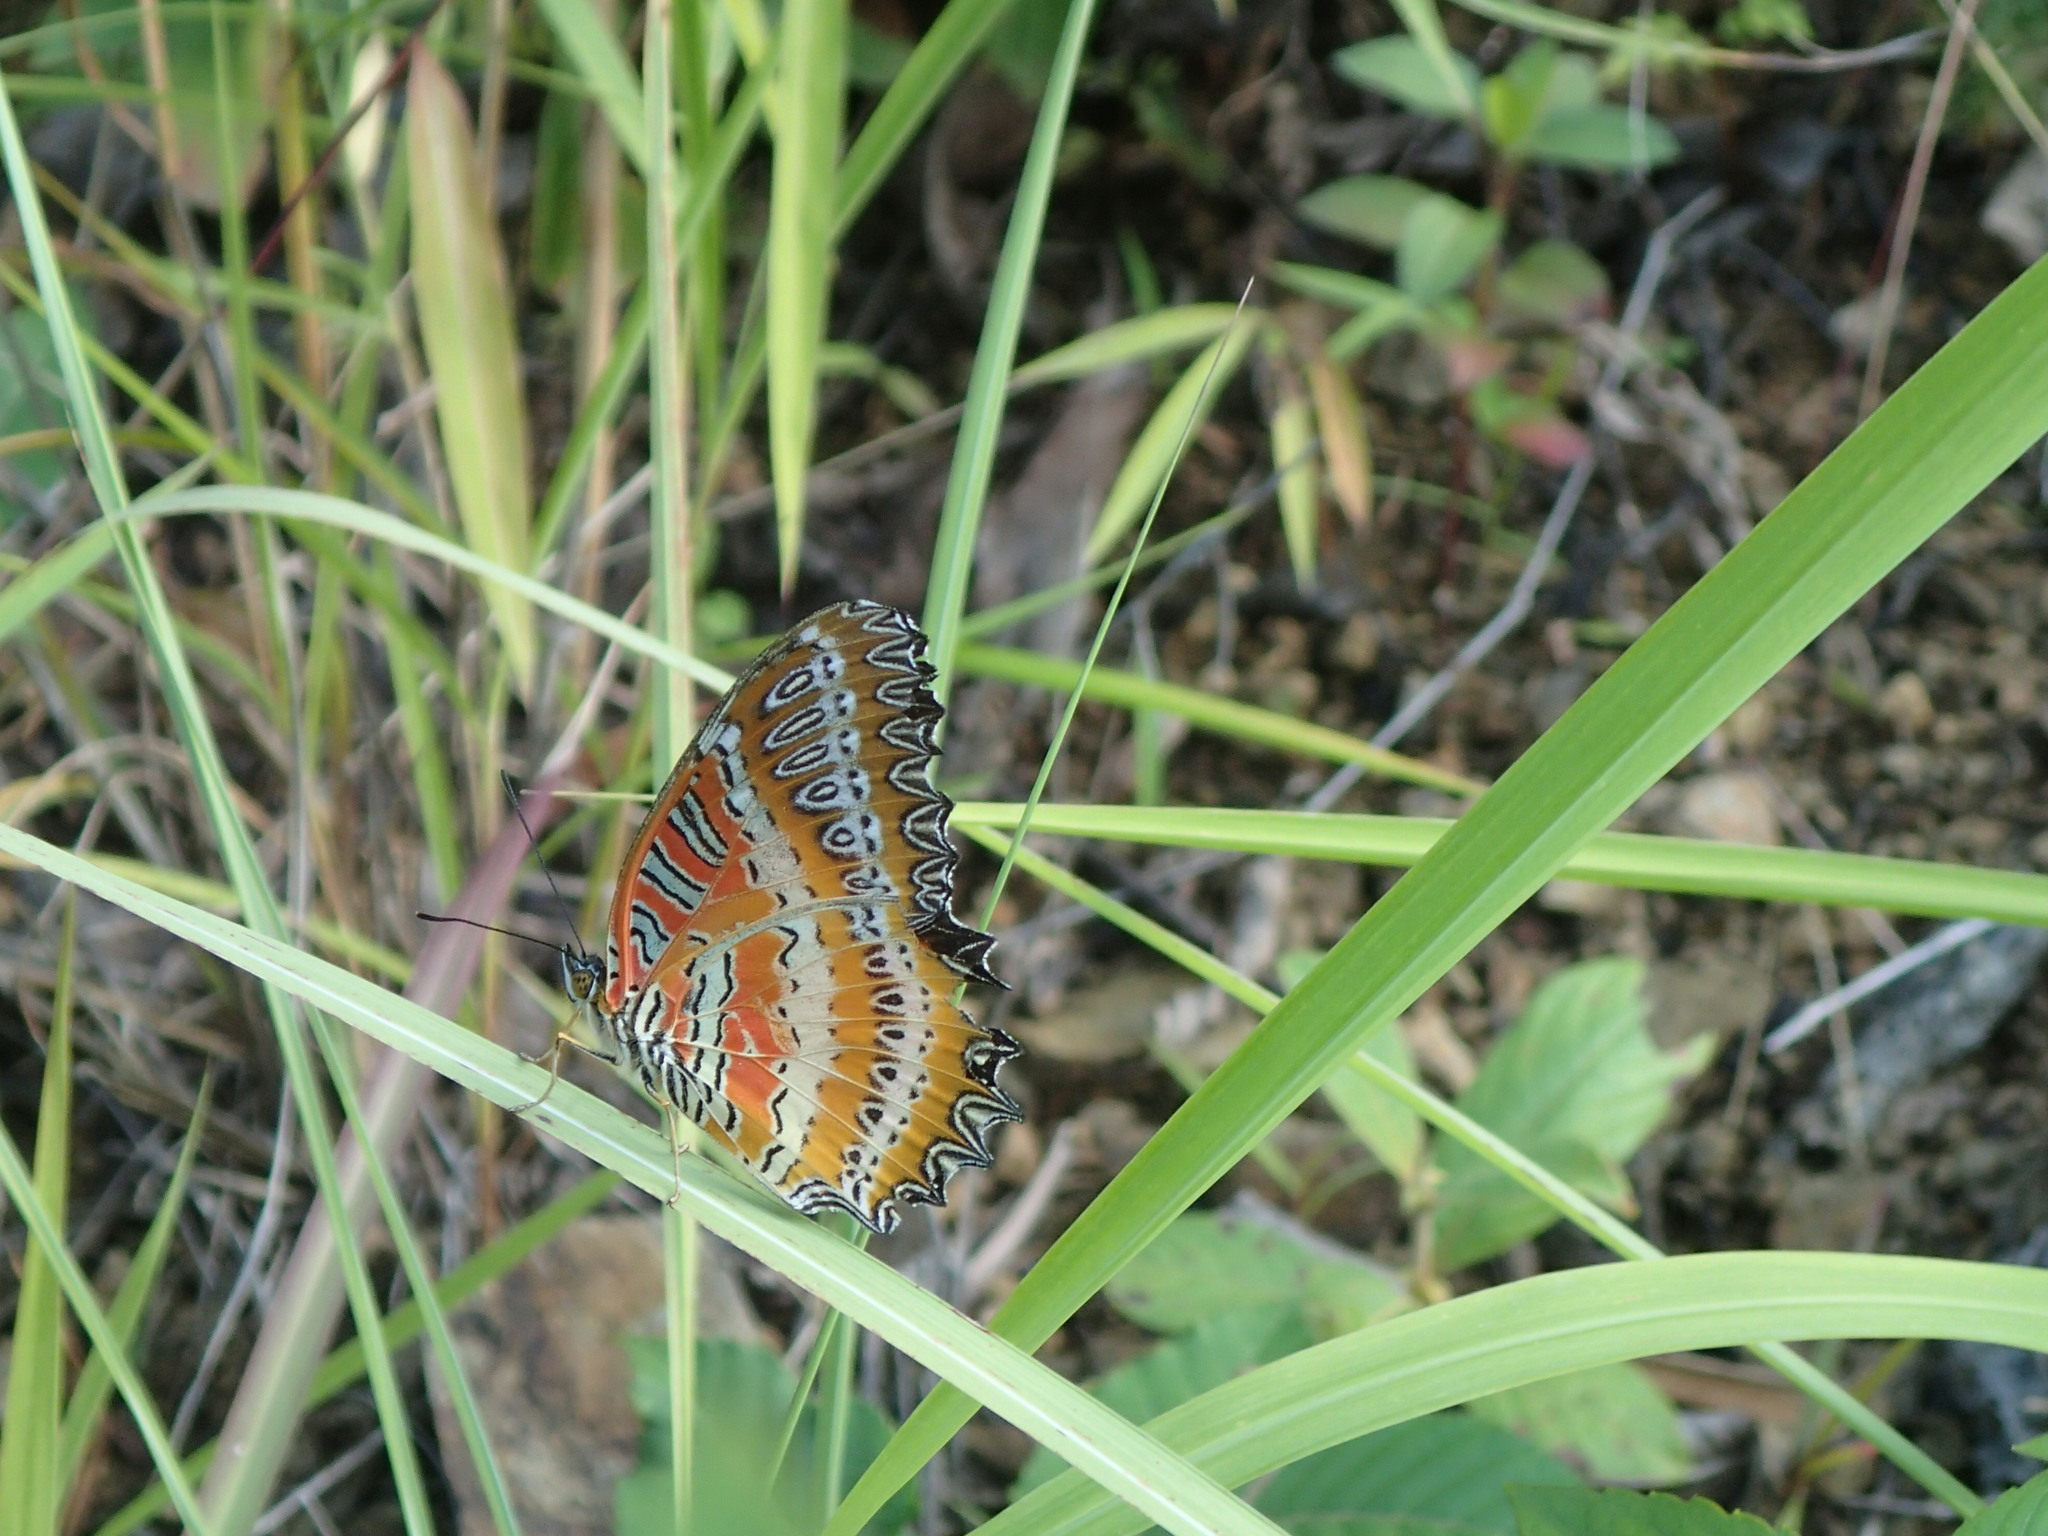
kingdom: Animalia
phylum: Arthropoda
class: Insecta
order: Lepidoptera
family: Nymphalidae
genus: Cethosia
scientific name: Cethosia biblis
